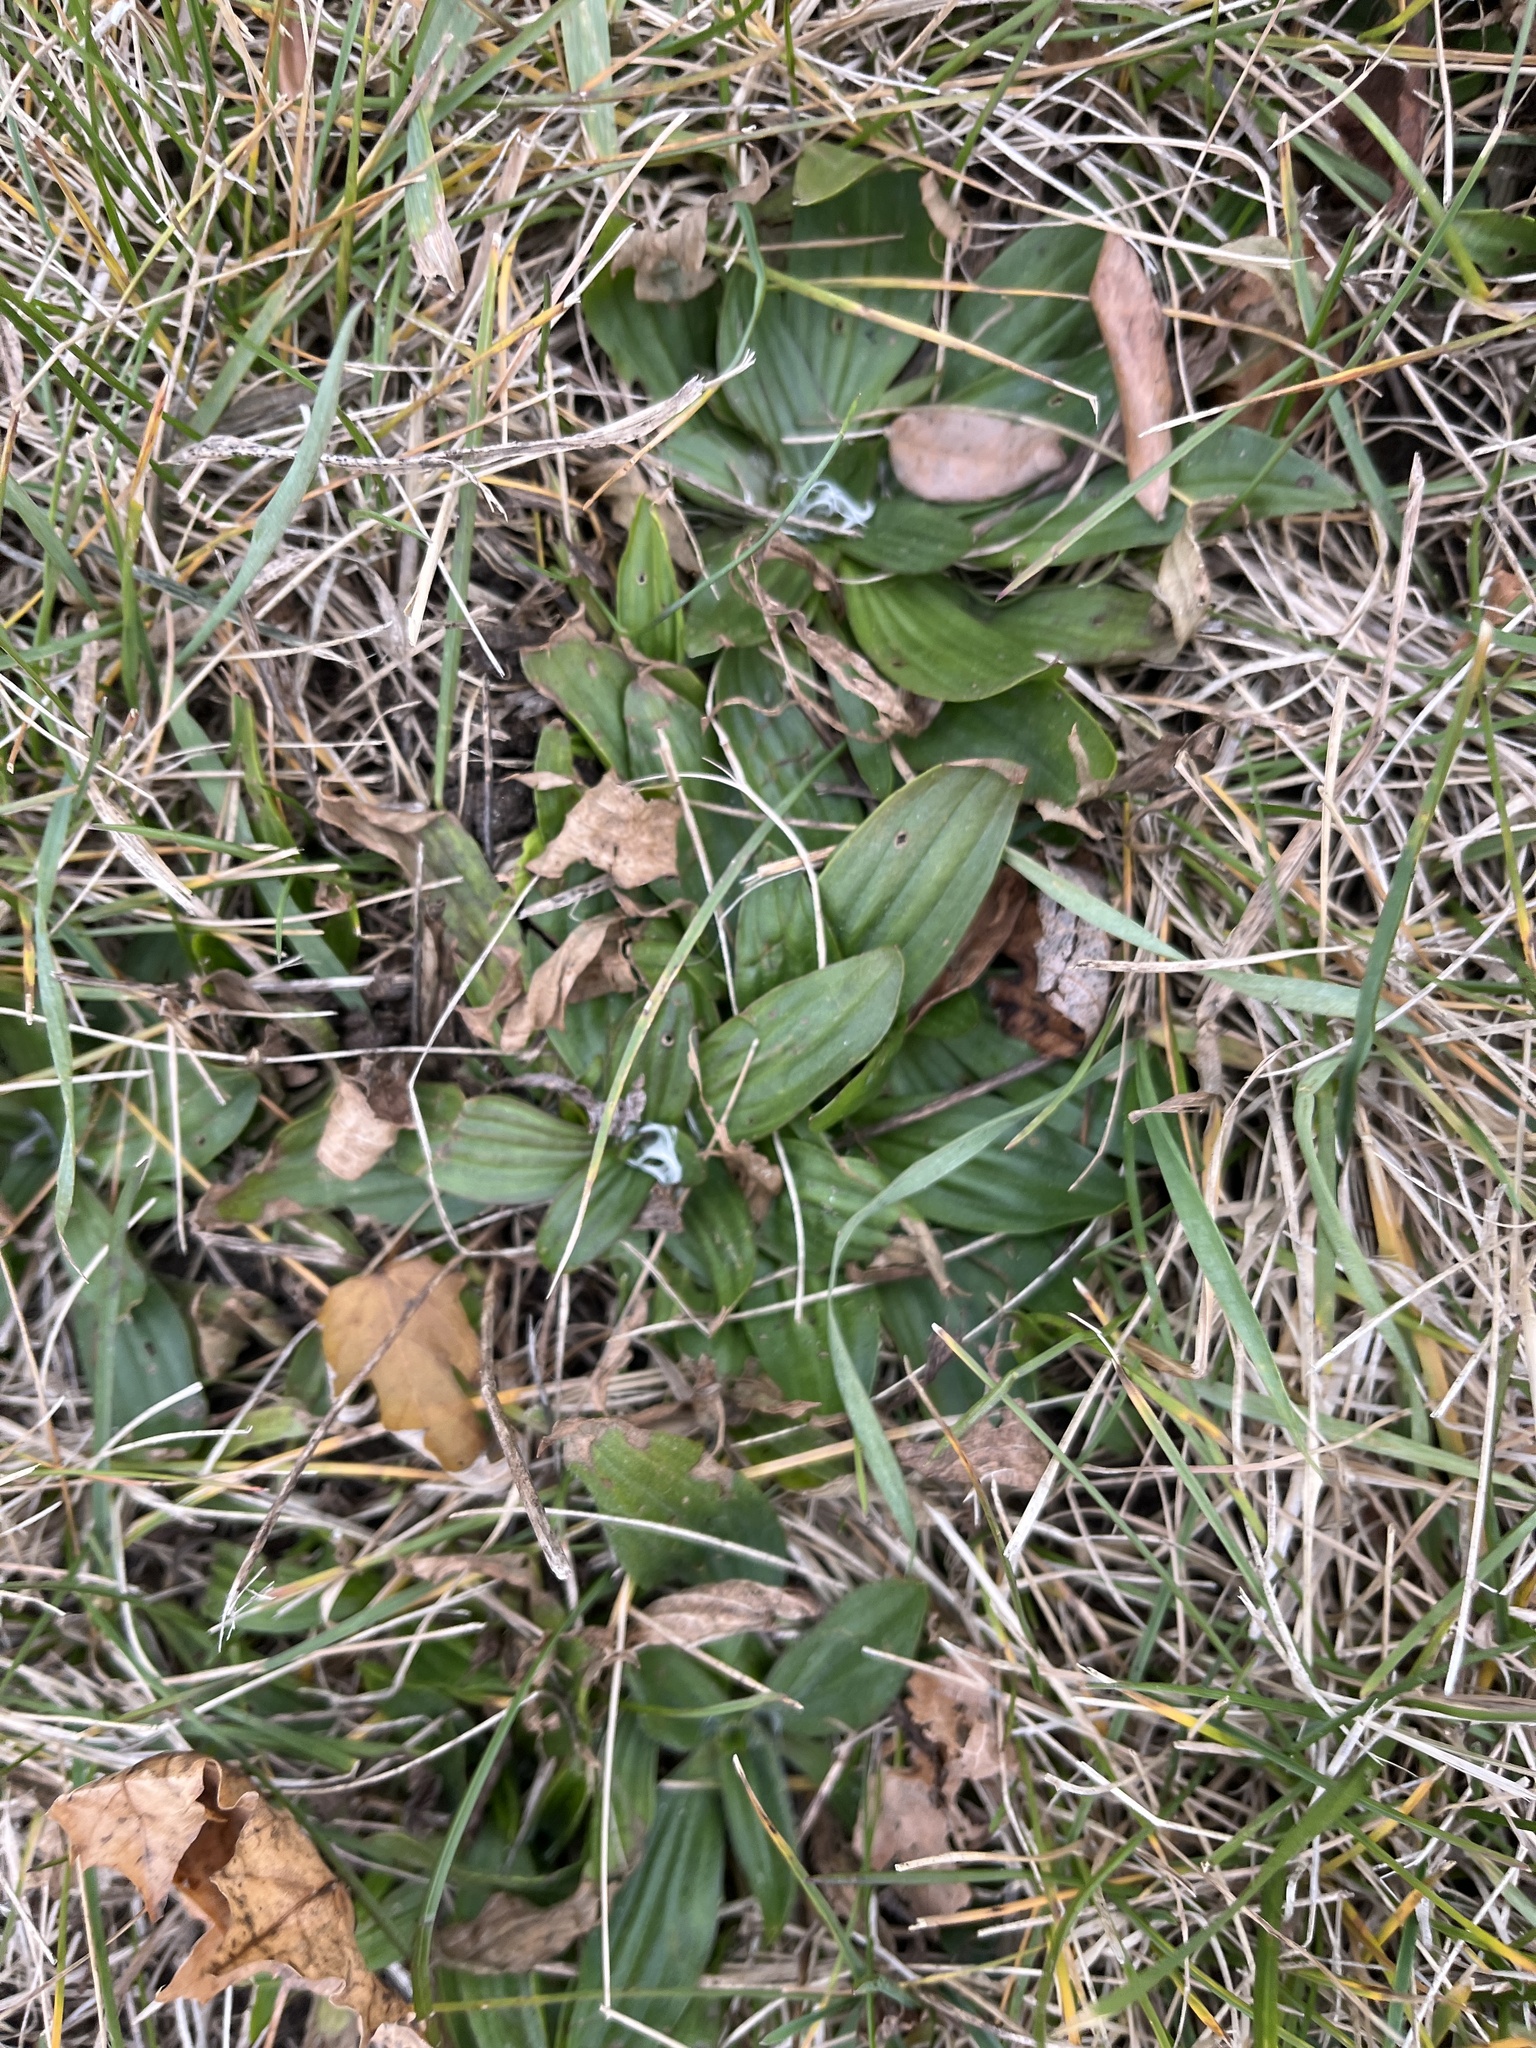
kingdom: Plantae
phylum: Tracheophyta
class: Magnoliopsida
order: Lamiales
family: Plantaginaceae
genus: Plantago
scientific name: Plantago lanceolata
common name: Ribwort plantain
